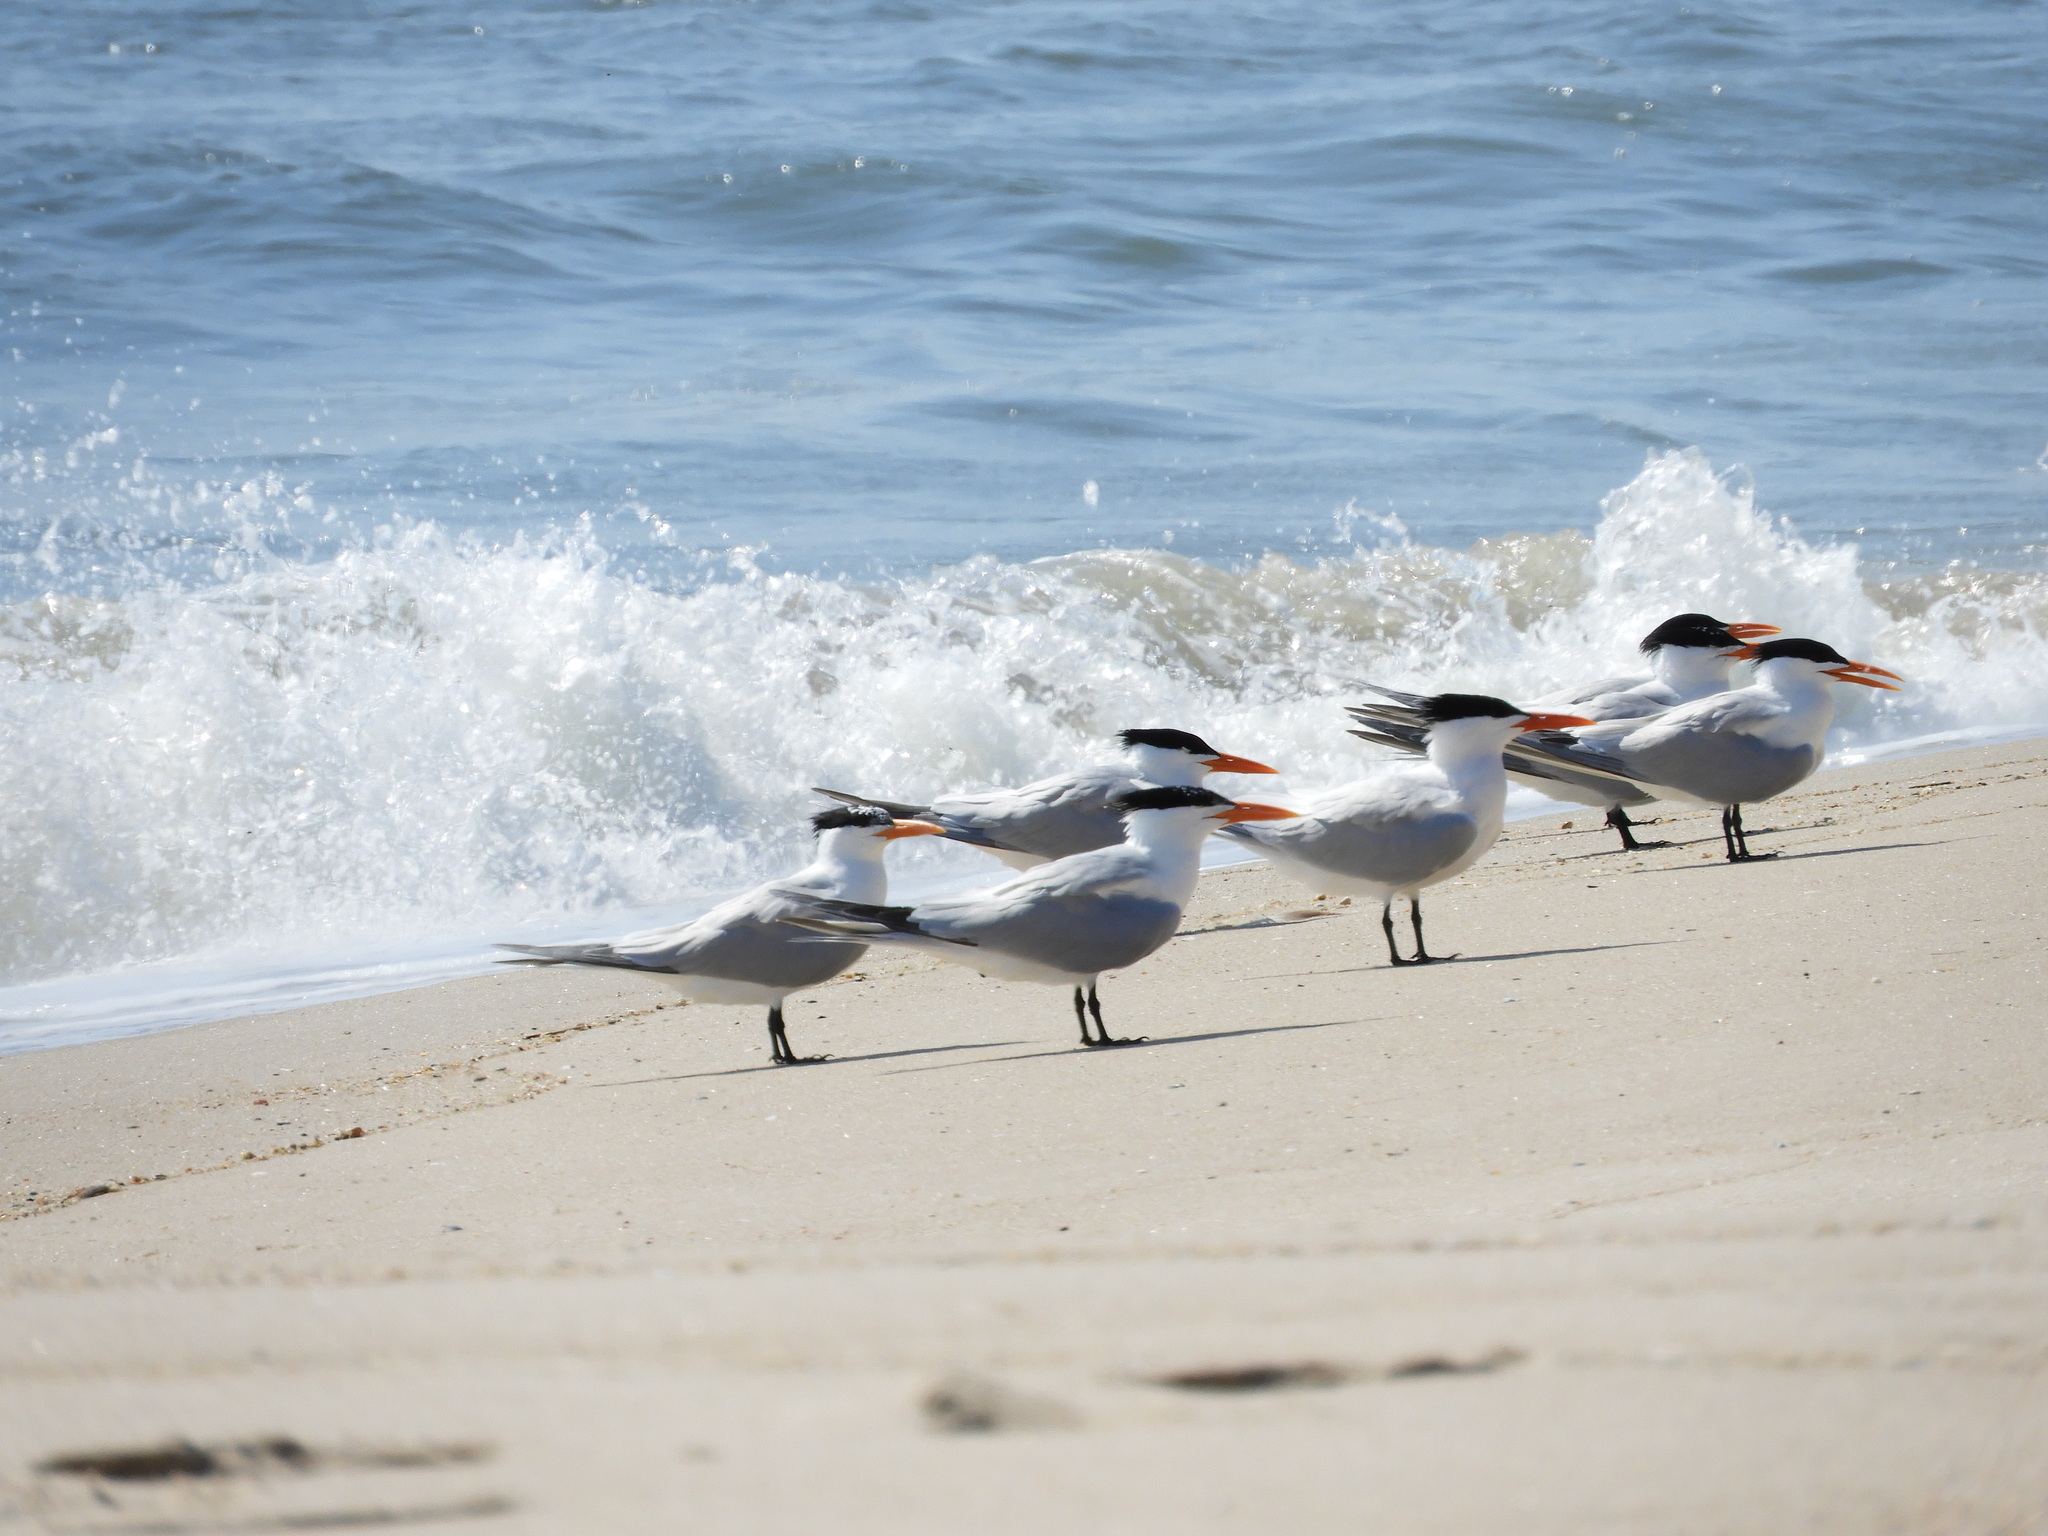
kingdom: Animalia
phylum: Chordata
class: Aves
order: Charadriiformes
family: Laridae
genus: Thalasseus
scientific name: Thalasseus maximus
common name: Royal tern
